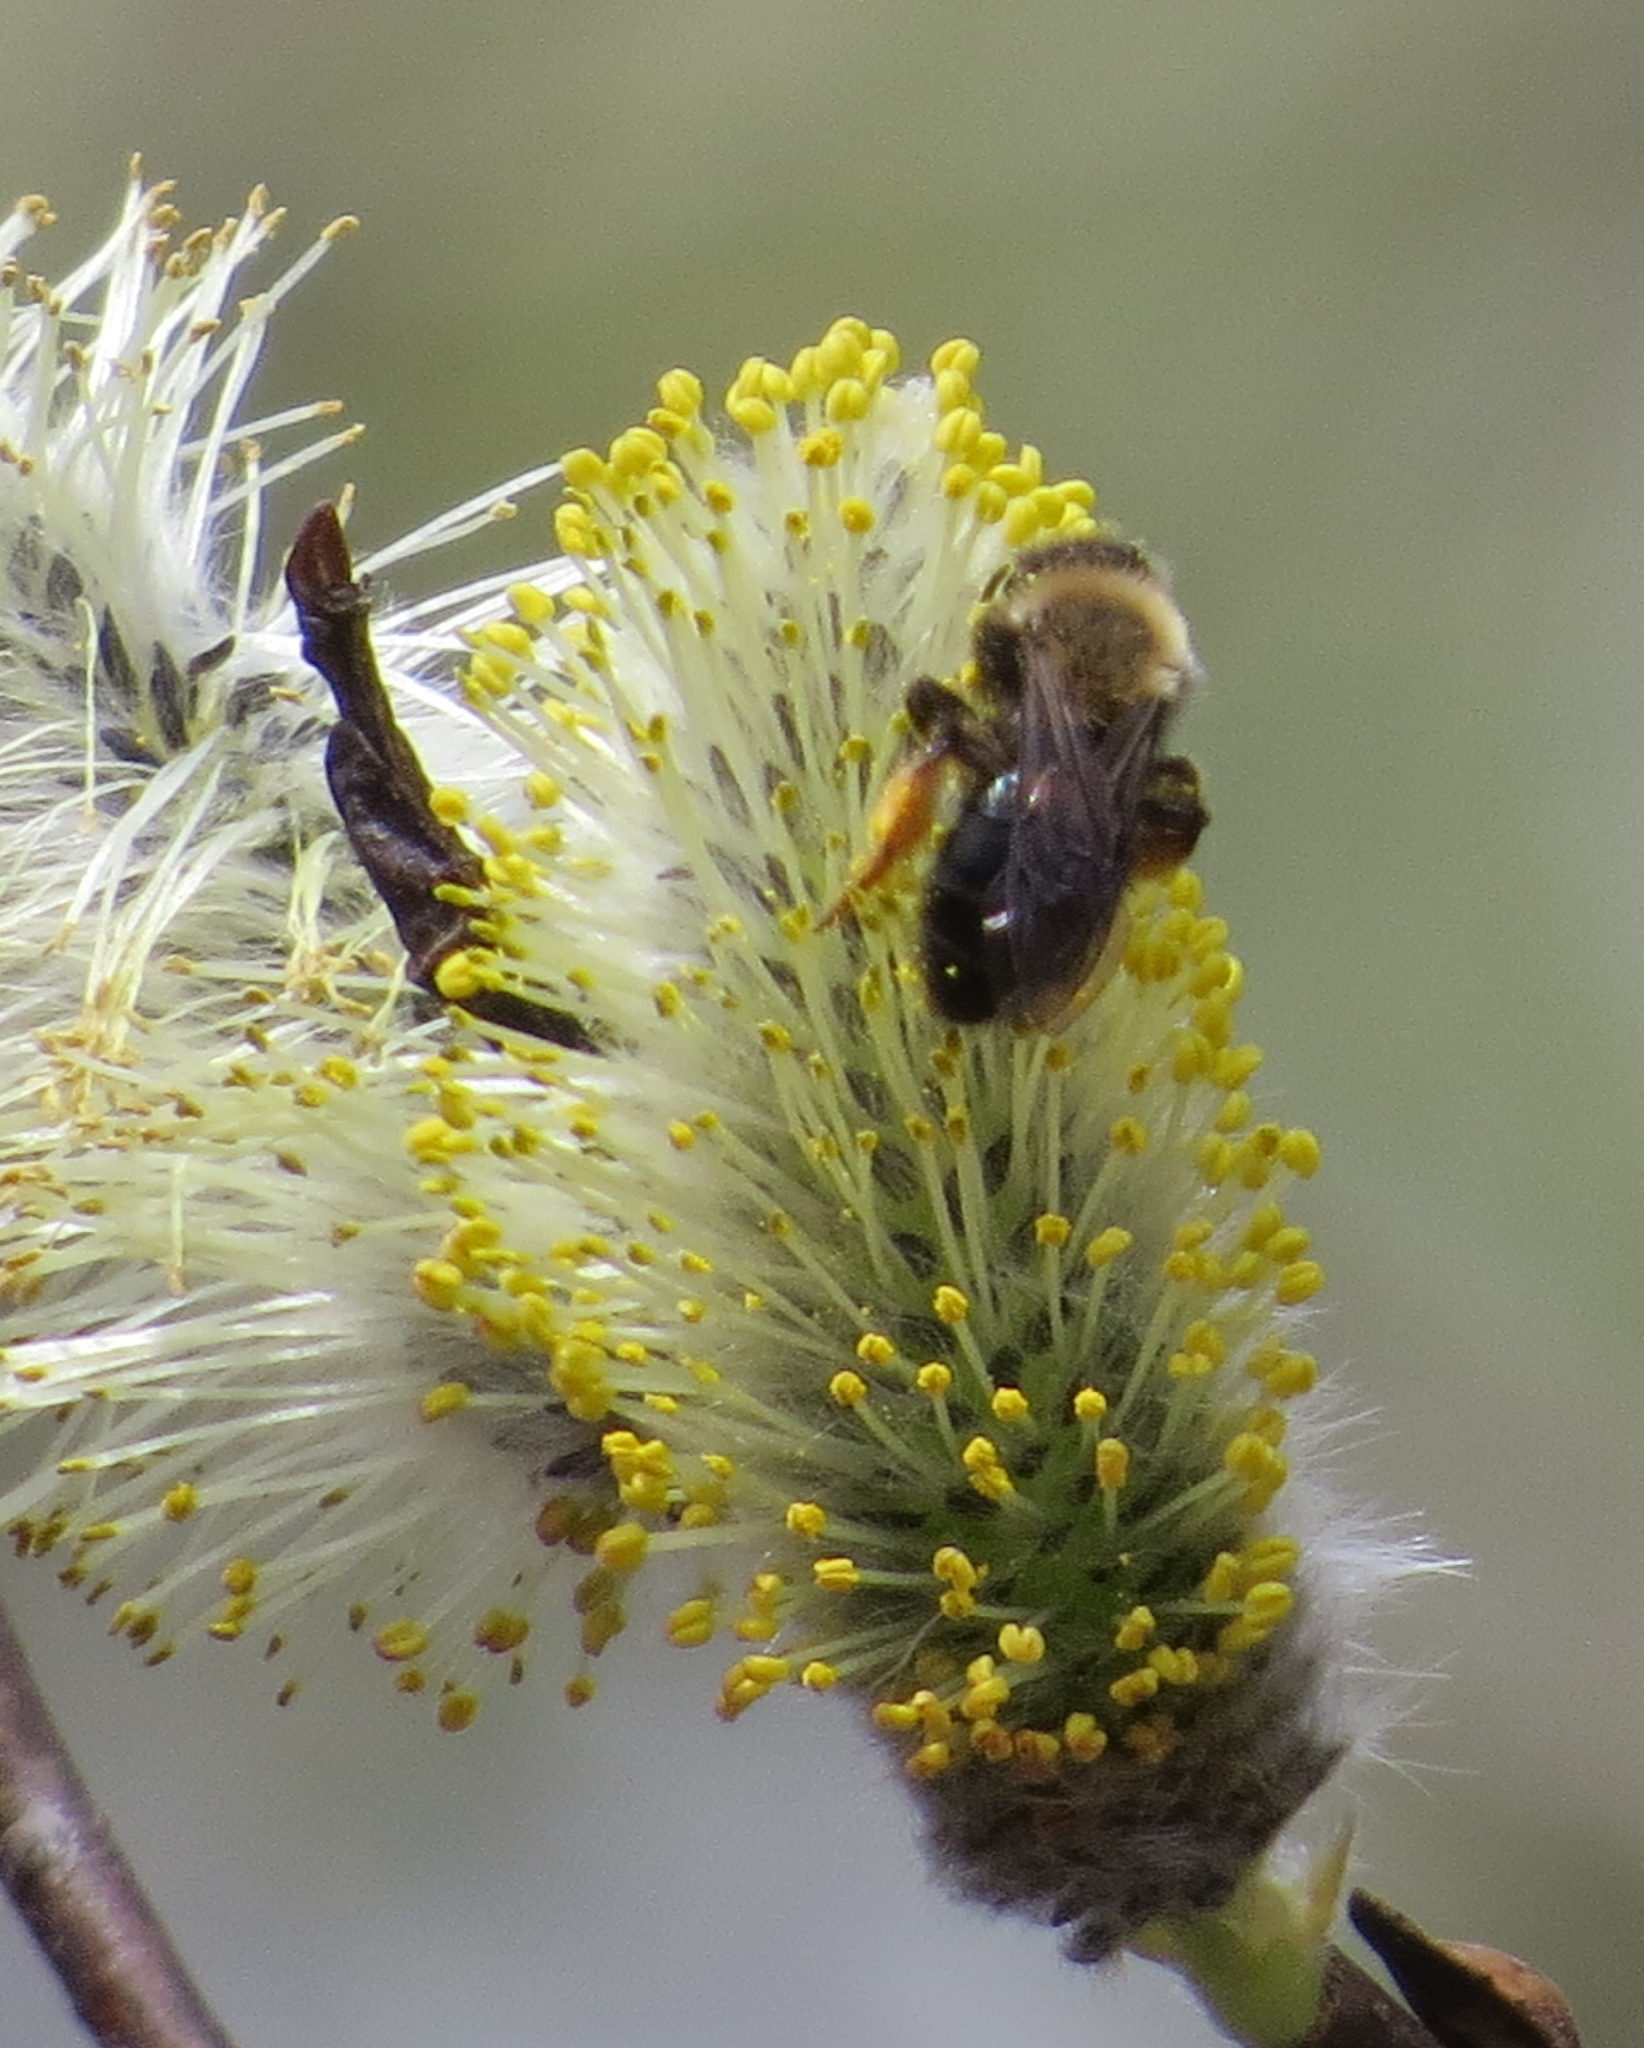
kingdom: Animalia
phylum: Arthropoda
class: Insecta
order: Hymenoptera
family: Andrenidae
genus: Andrena
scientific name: Andrena clarkella
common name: Clarke's mining bee
